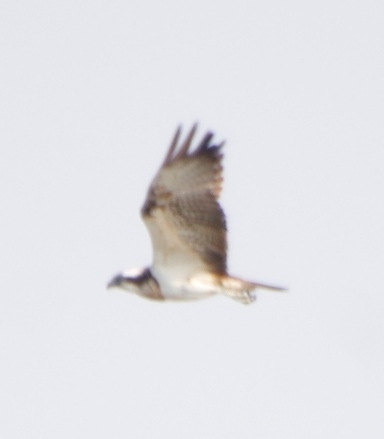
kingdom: Animalia
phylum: Chordata
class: Aves
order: Accipitriformes
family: Pandionidae
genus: Pandion
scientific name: Pandion haliaetus
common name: Osprey
